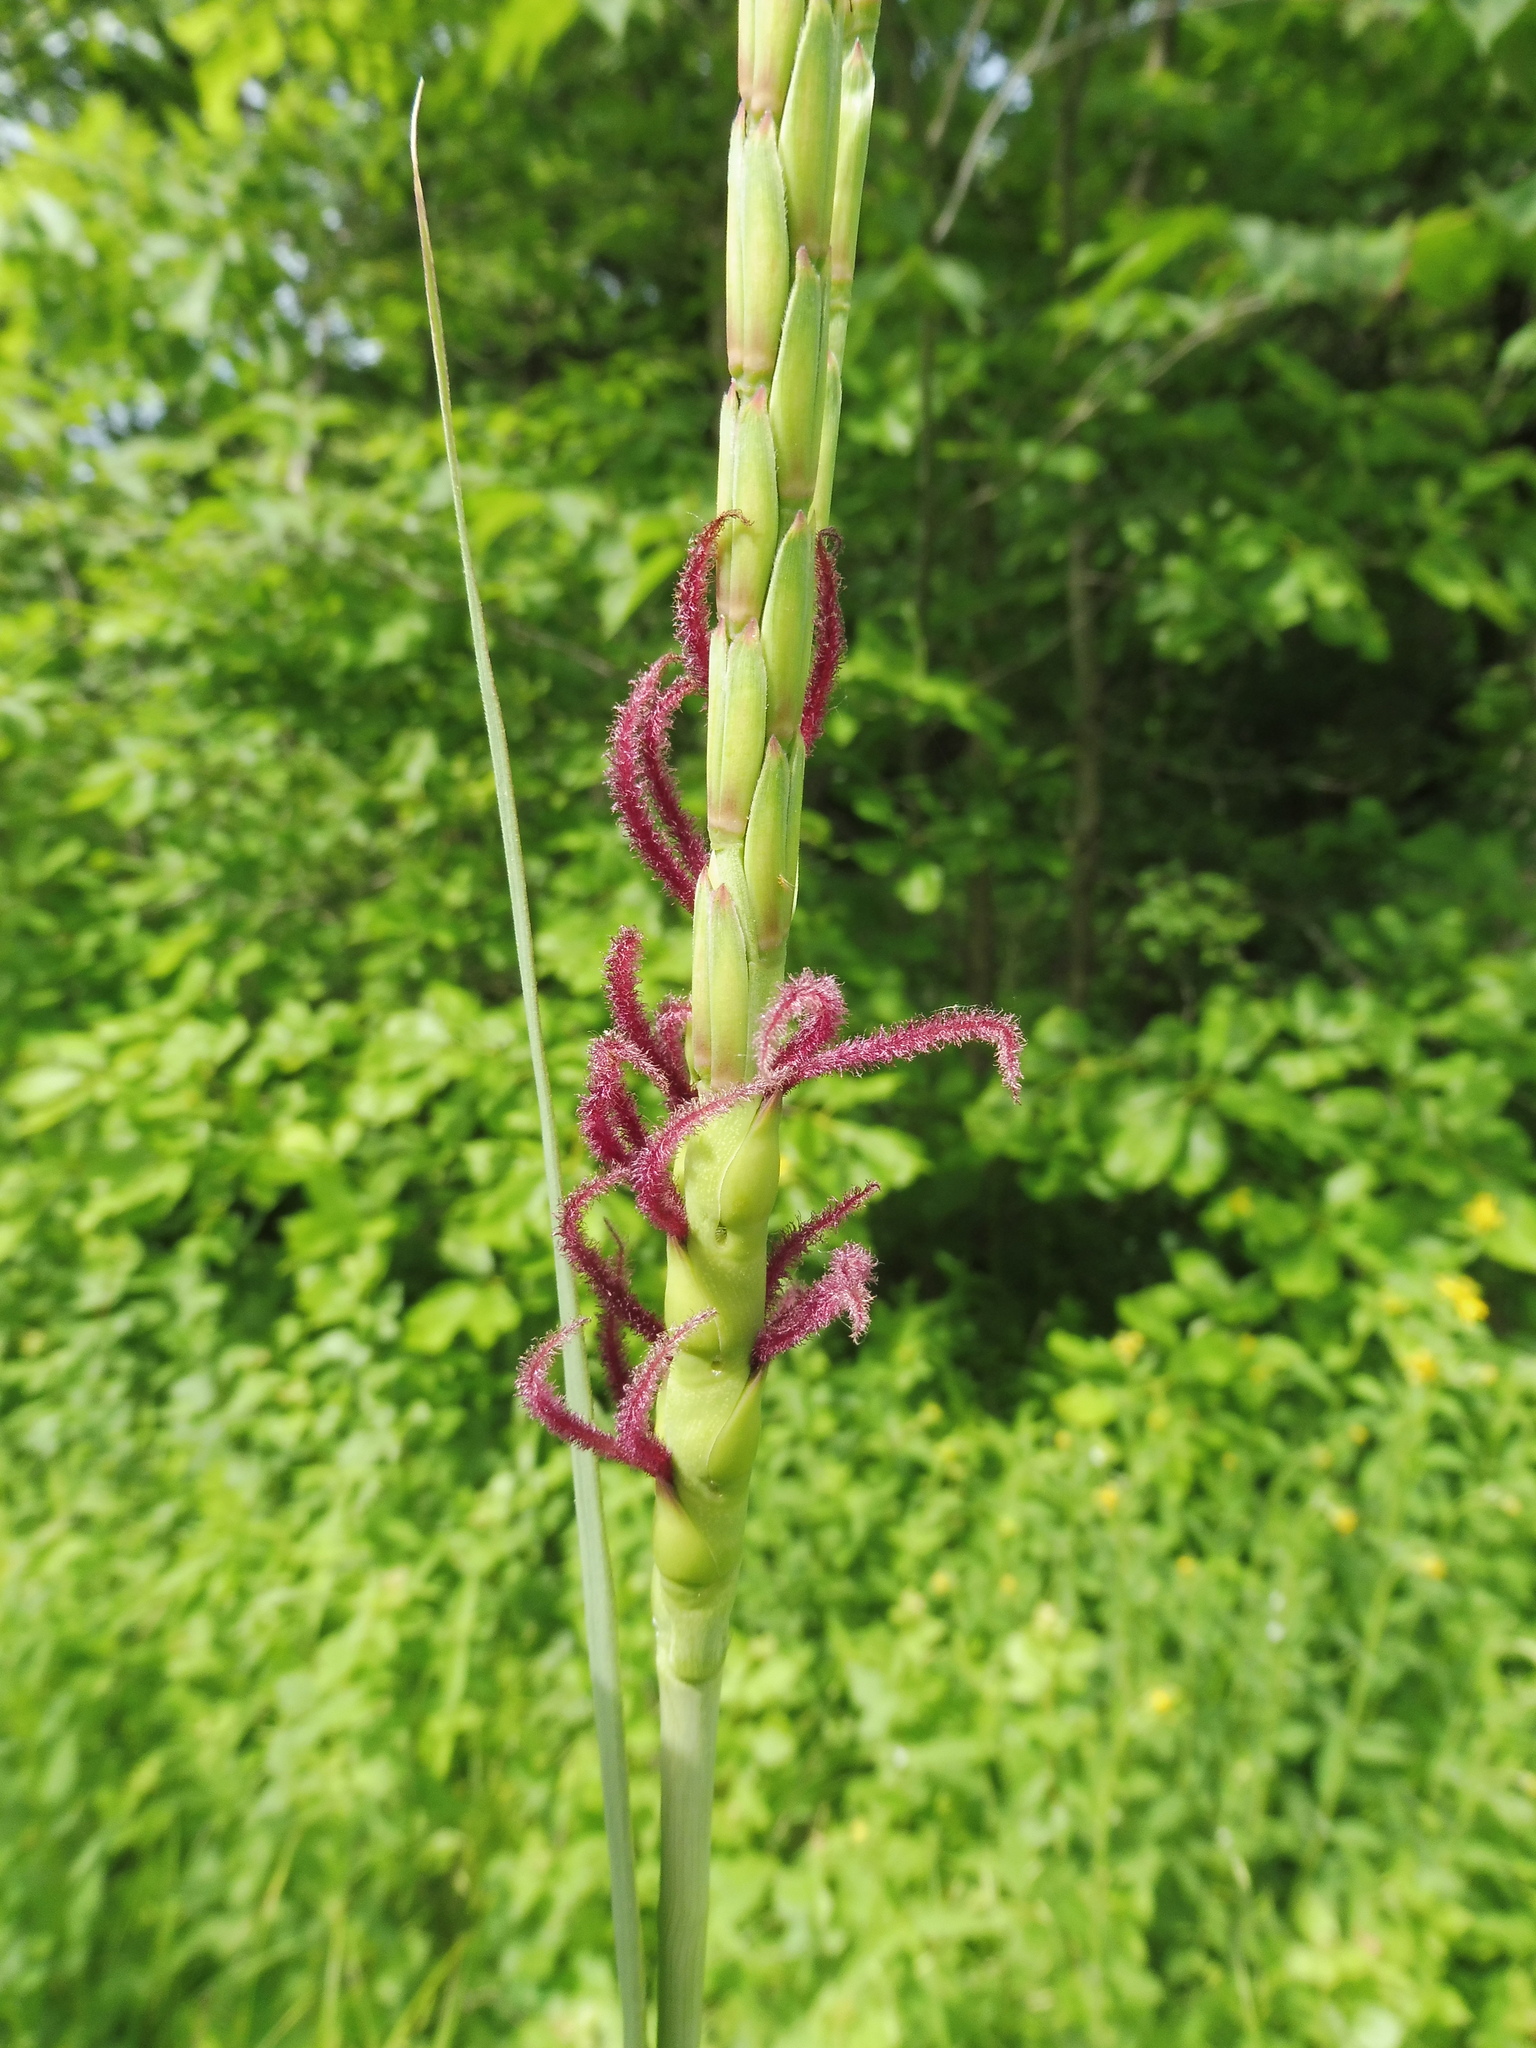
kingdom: Plantae
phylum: Tracheophyta
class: Liliopsida
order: Poales
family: Poaceae
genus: Tripsacum
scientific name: Tripsacum dactyloides
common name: Buffalo-grass
